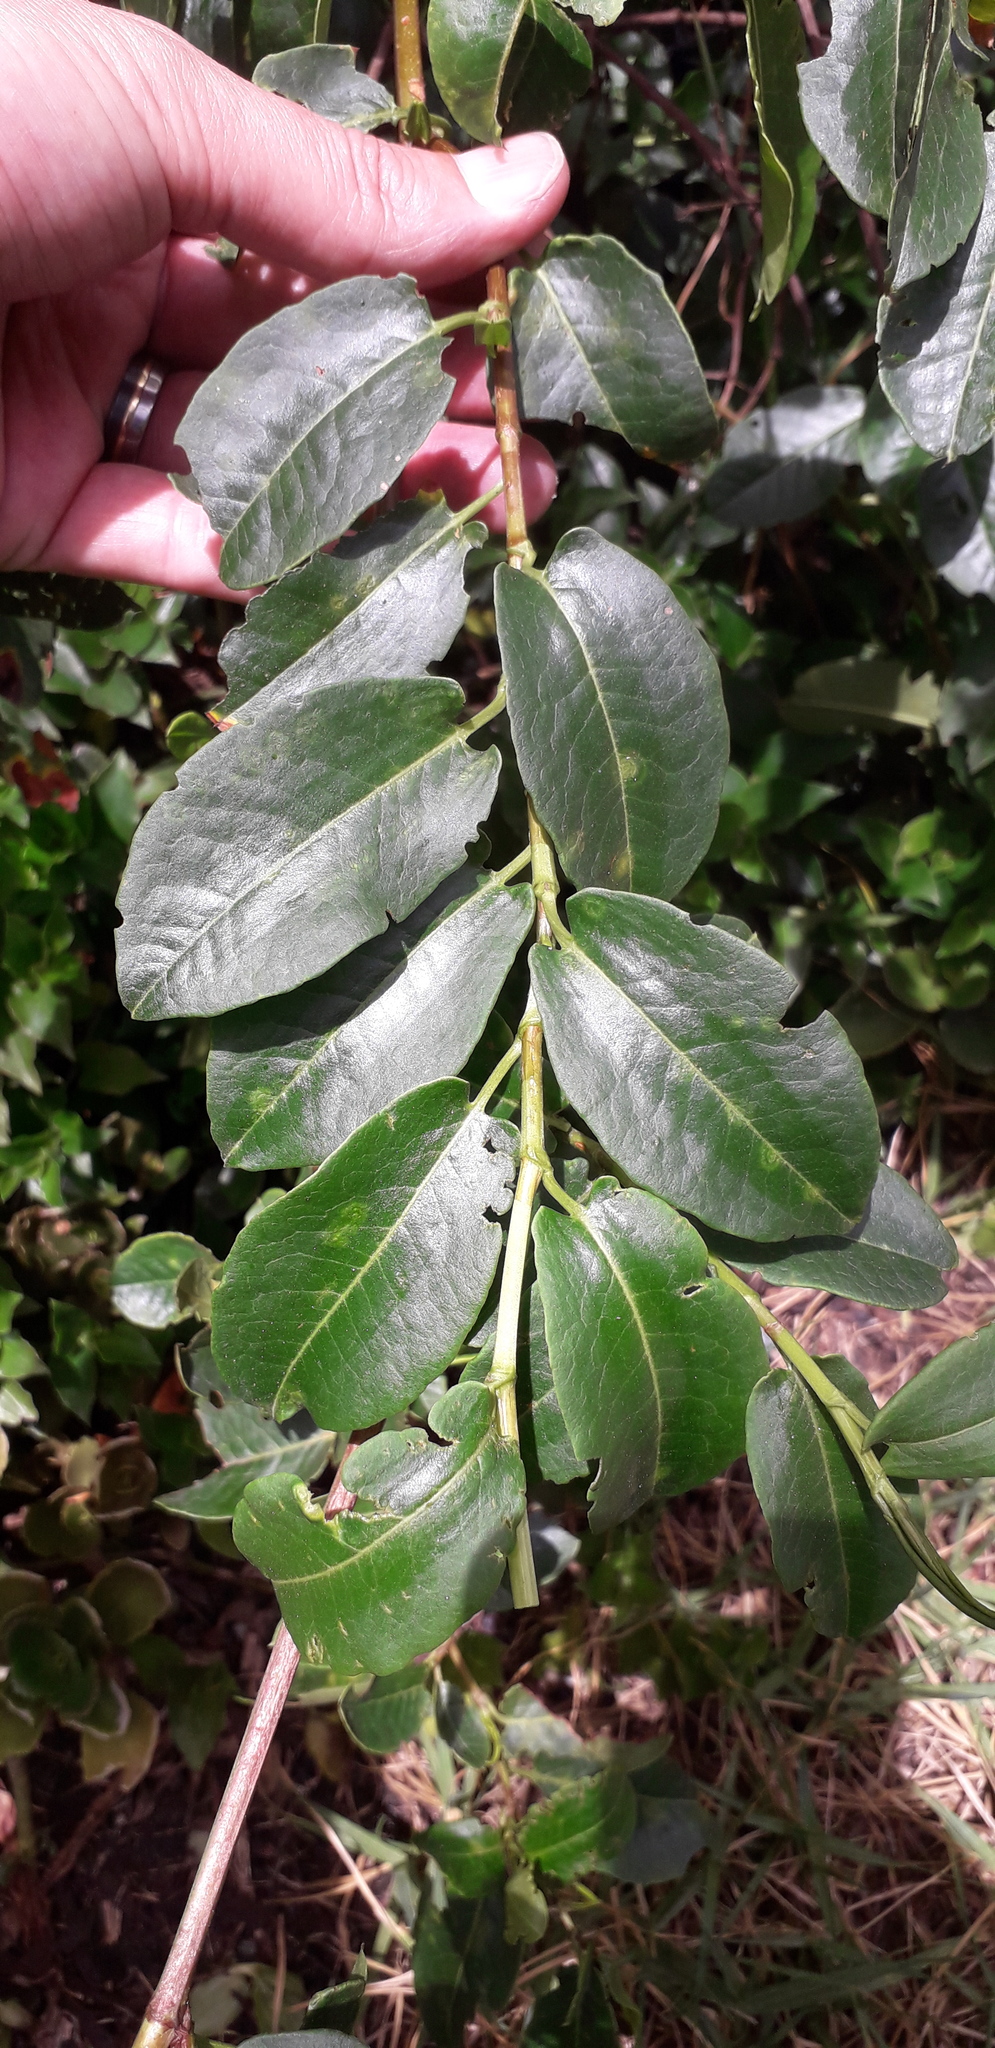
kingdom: Plantae
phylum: Tracheophyta
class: Magnoliopsida
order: Caryophyllales
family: Polygonaceae
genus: Muehlenbeckia
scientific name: Muehlenbeckia tamnifolia
